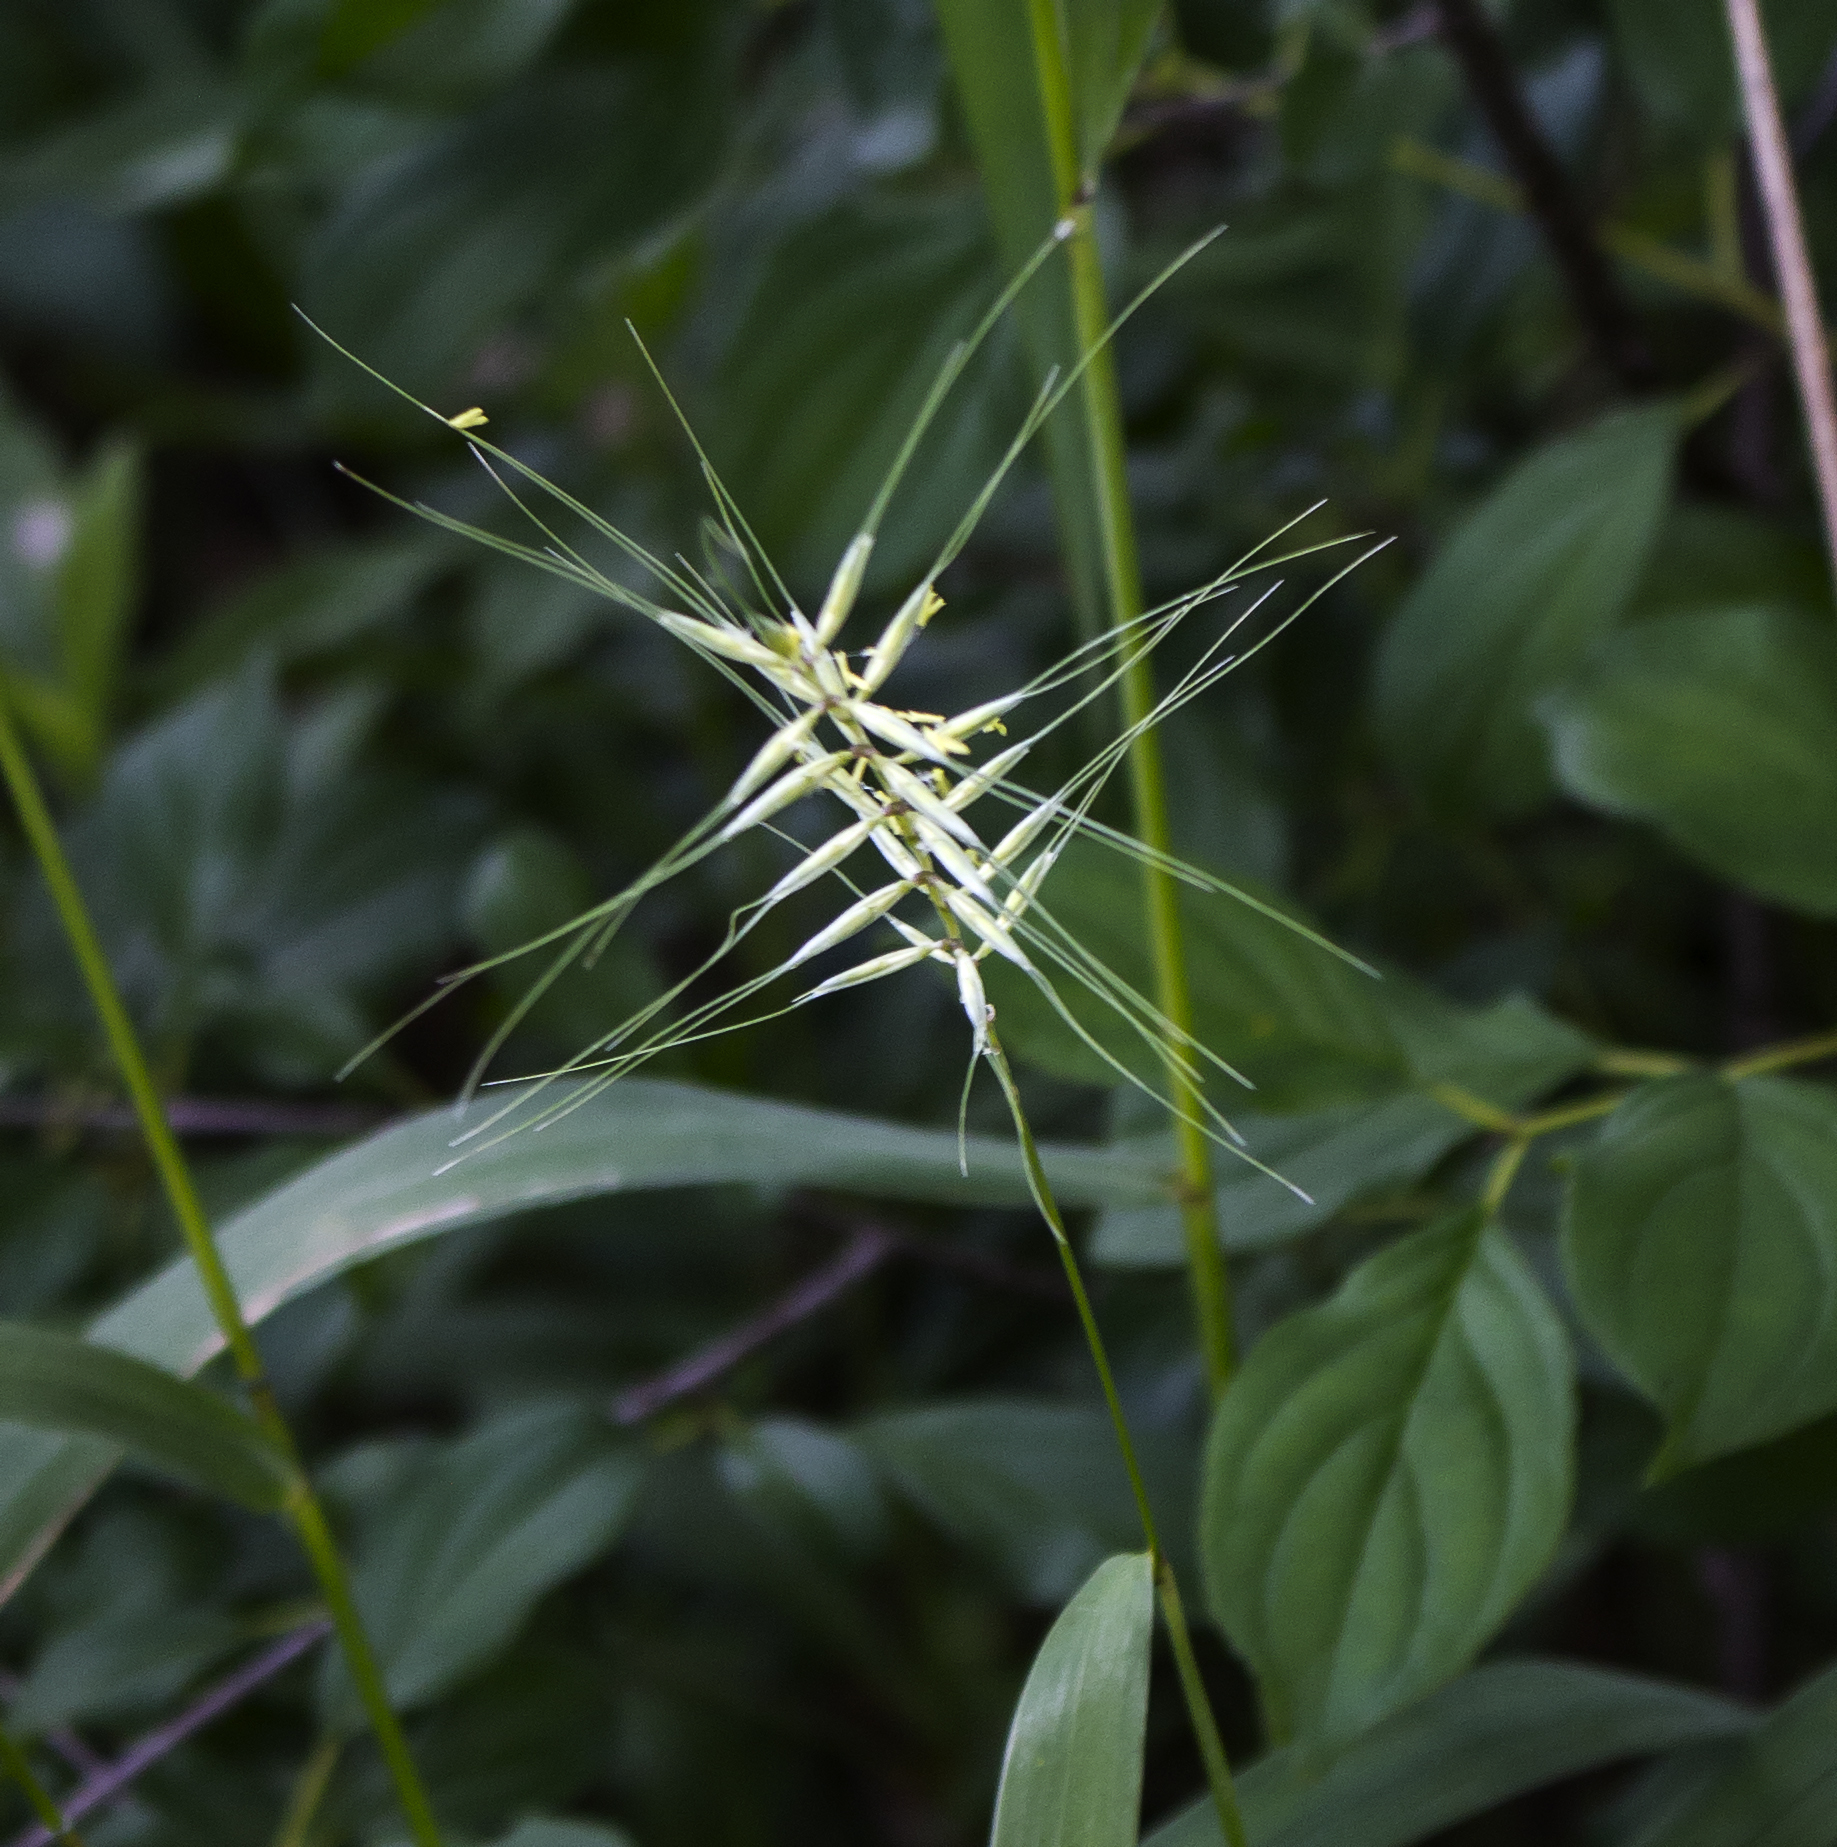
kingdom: Plantae
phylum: Tracheophyta
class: Liliopsida
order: Poales
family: Poaceae
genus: Elymus
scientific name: Elymus hystrix
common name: Bottlebrush grass
